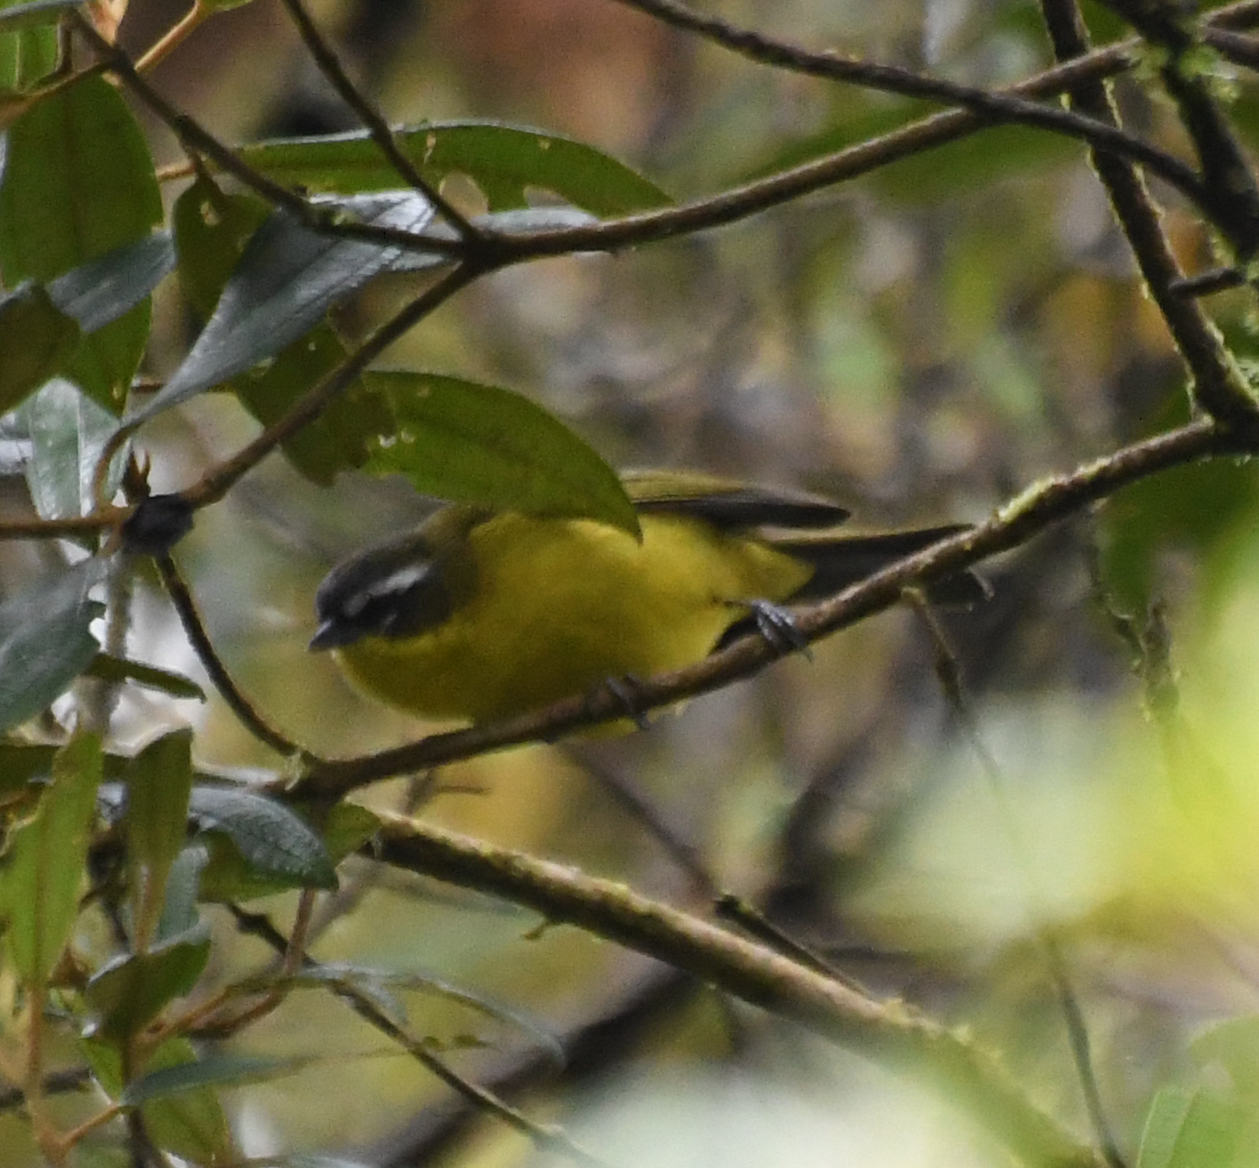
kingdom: Animalia
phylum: Chordata
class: Aves
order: Passeriformes
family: Thraupidae
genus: Thlypopsis
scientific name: Thlypopsis superciliaris
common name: Superciliaried hemispingus
